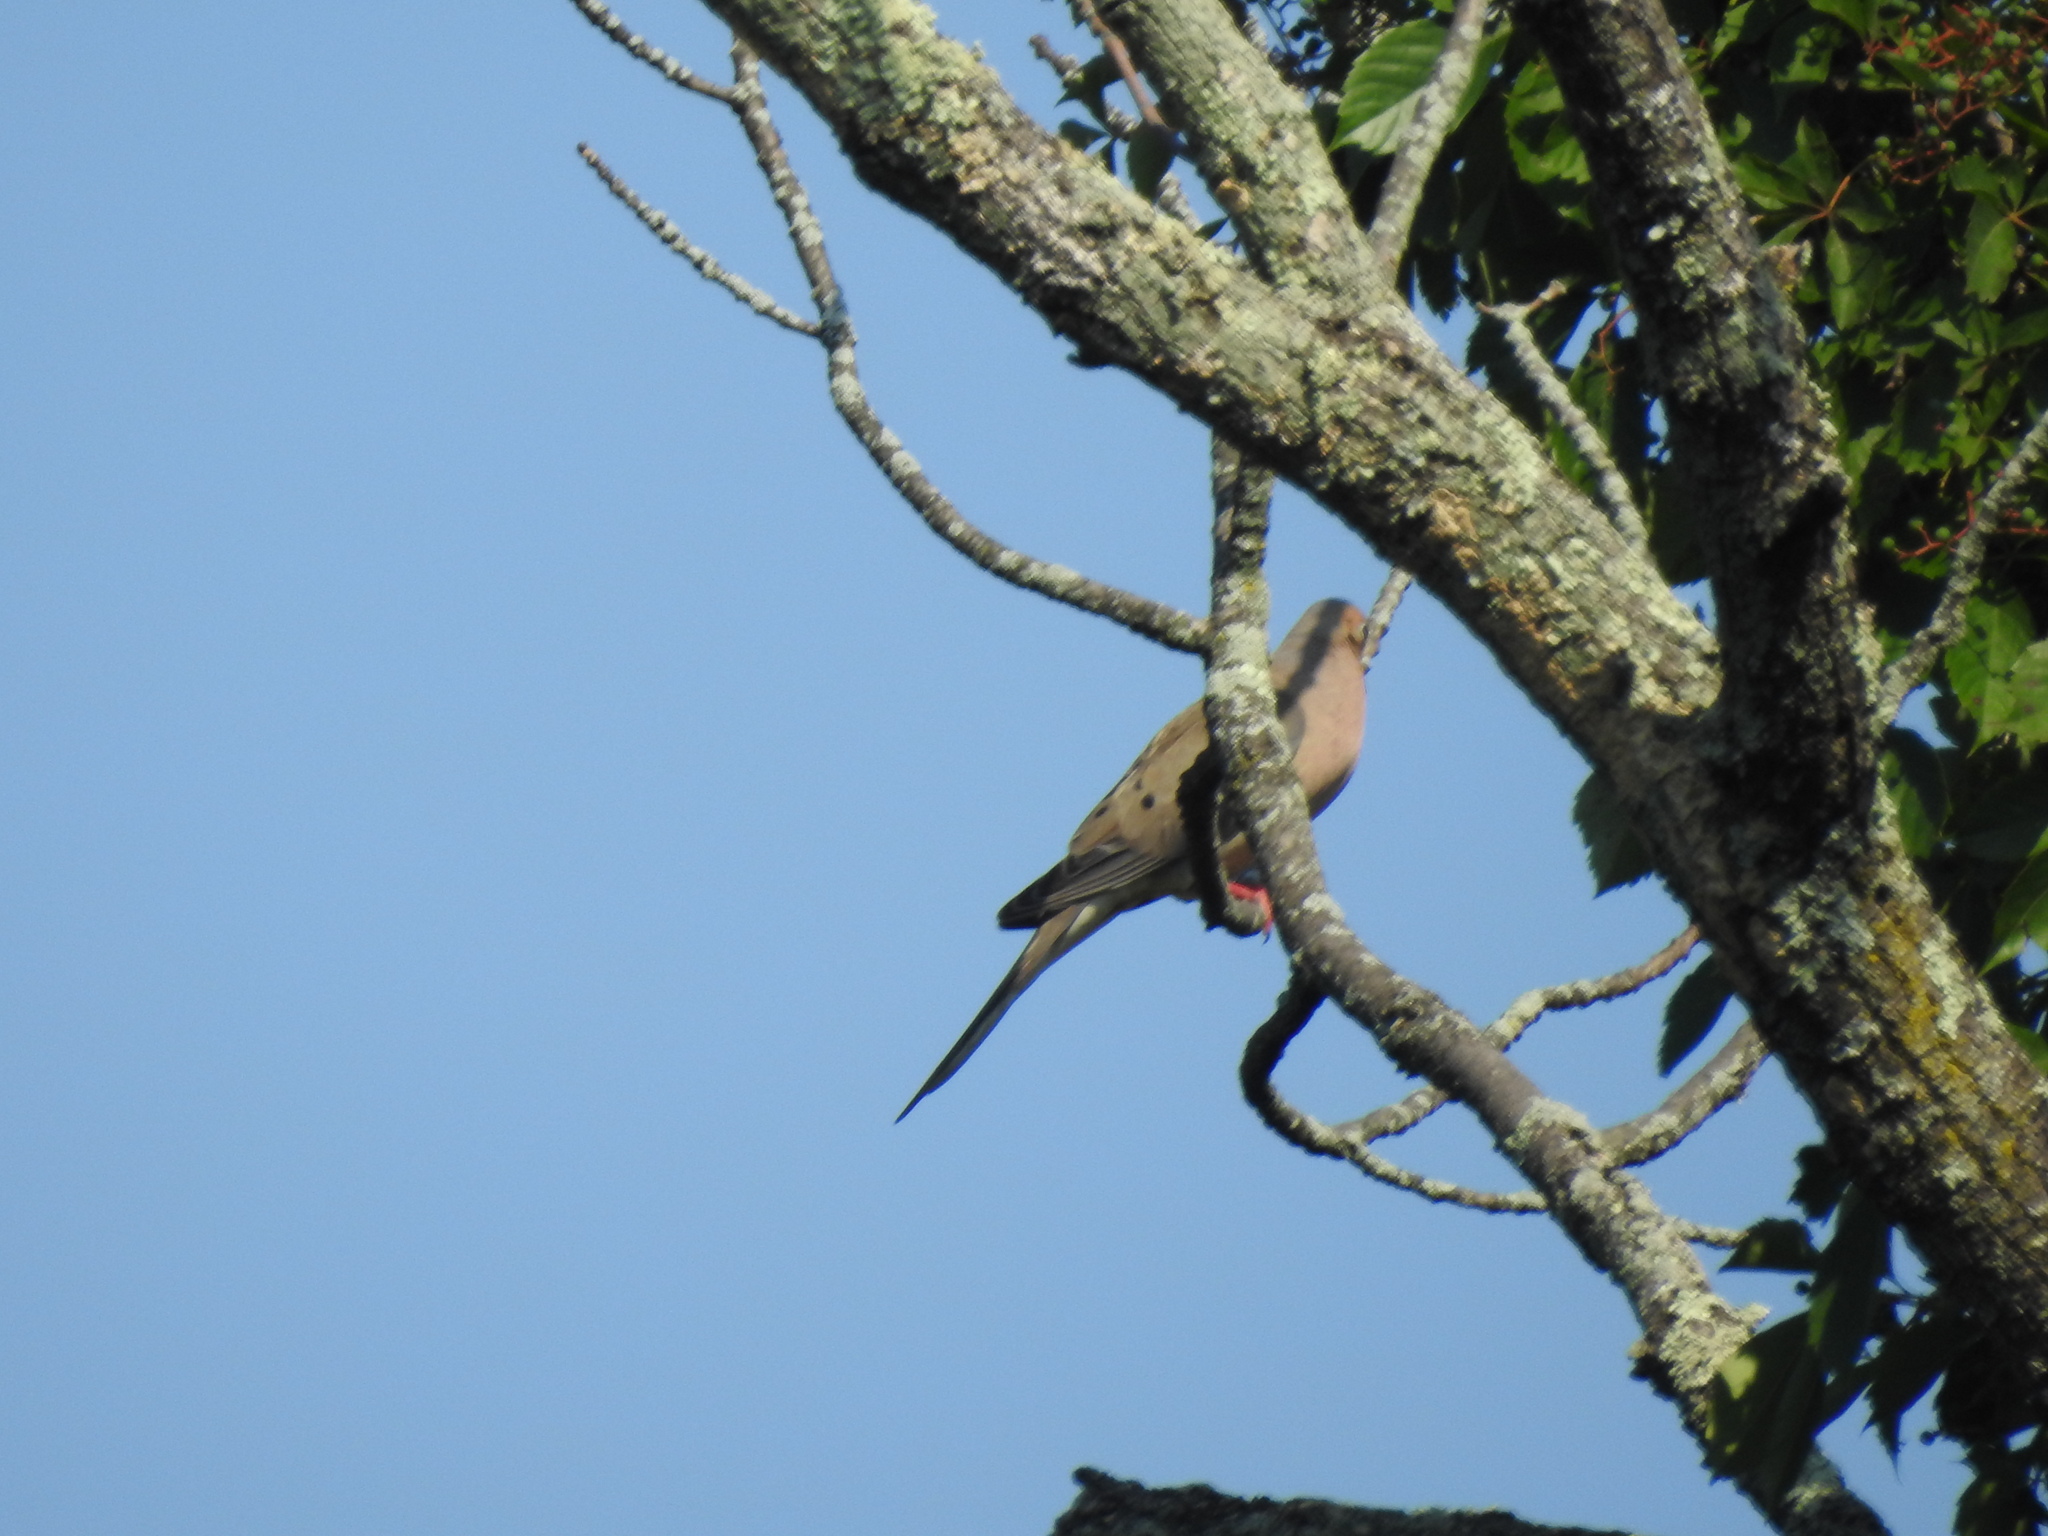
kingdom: Animalia
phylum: Chordata
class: Aves
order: Columbiformes
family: Columbidae
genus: Zenaida
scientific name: Zenaida macroura
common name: Mourning dove
